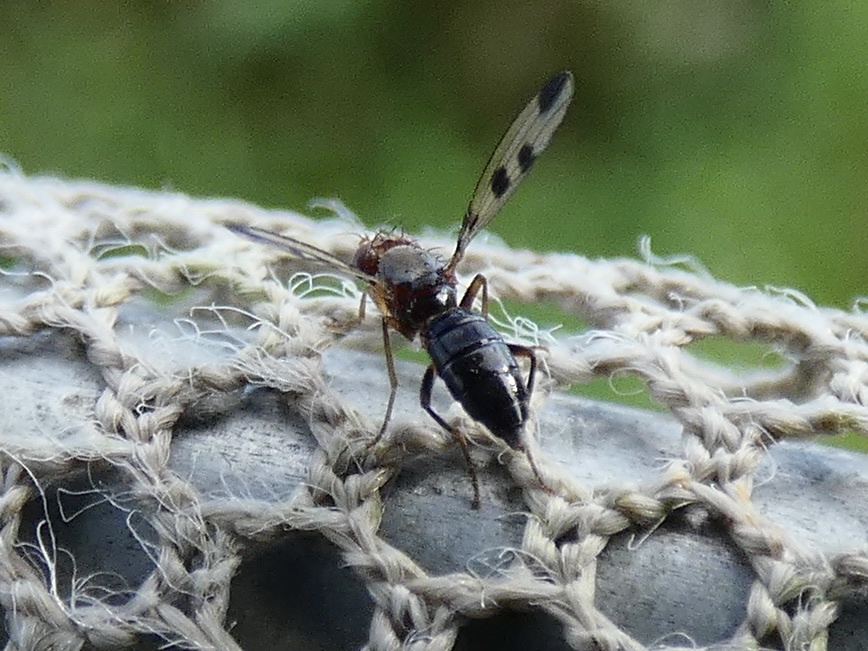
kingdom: Animalia
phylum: Arthropoda
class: Insecta
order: Diptera
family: Opomyzidae
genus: Geomyza
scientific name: Geomyza tripunctata
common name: Cereal fly
